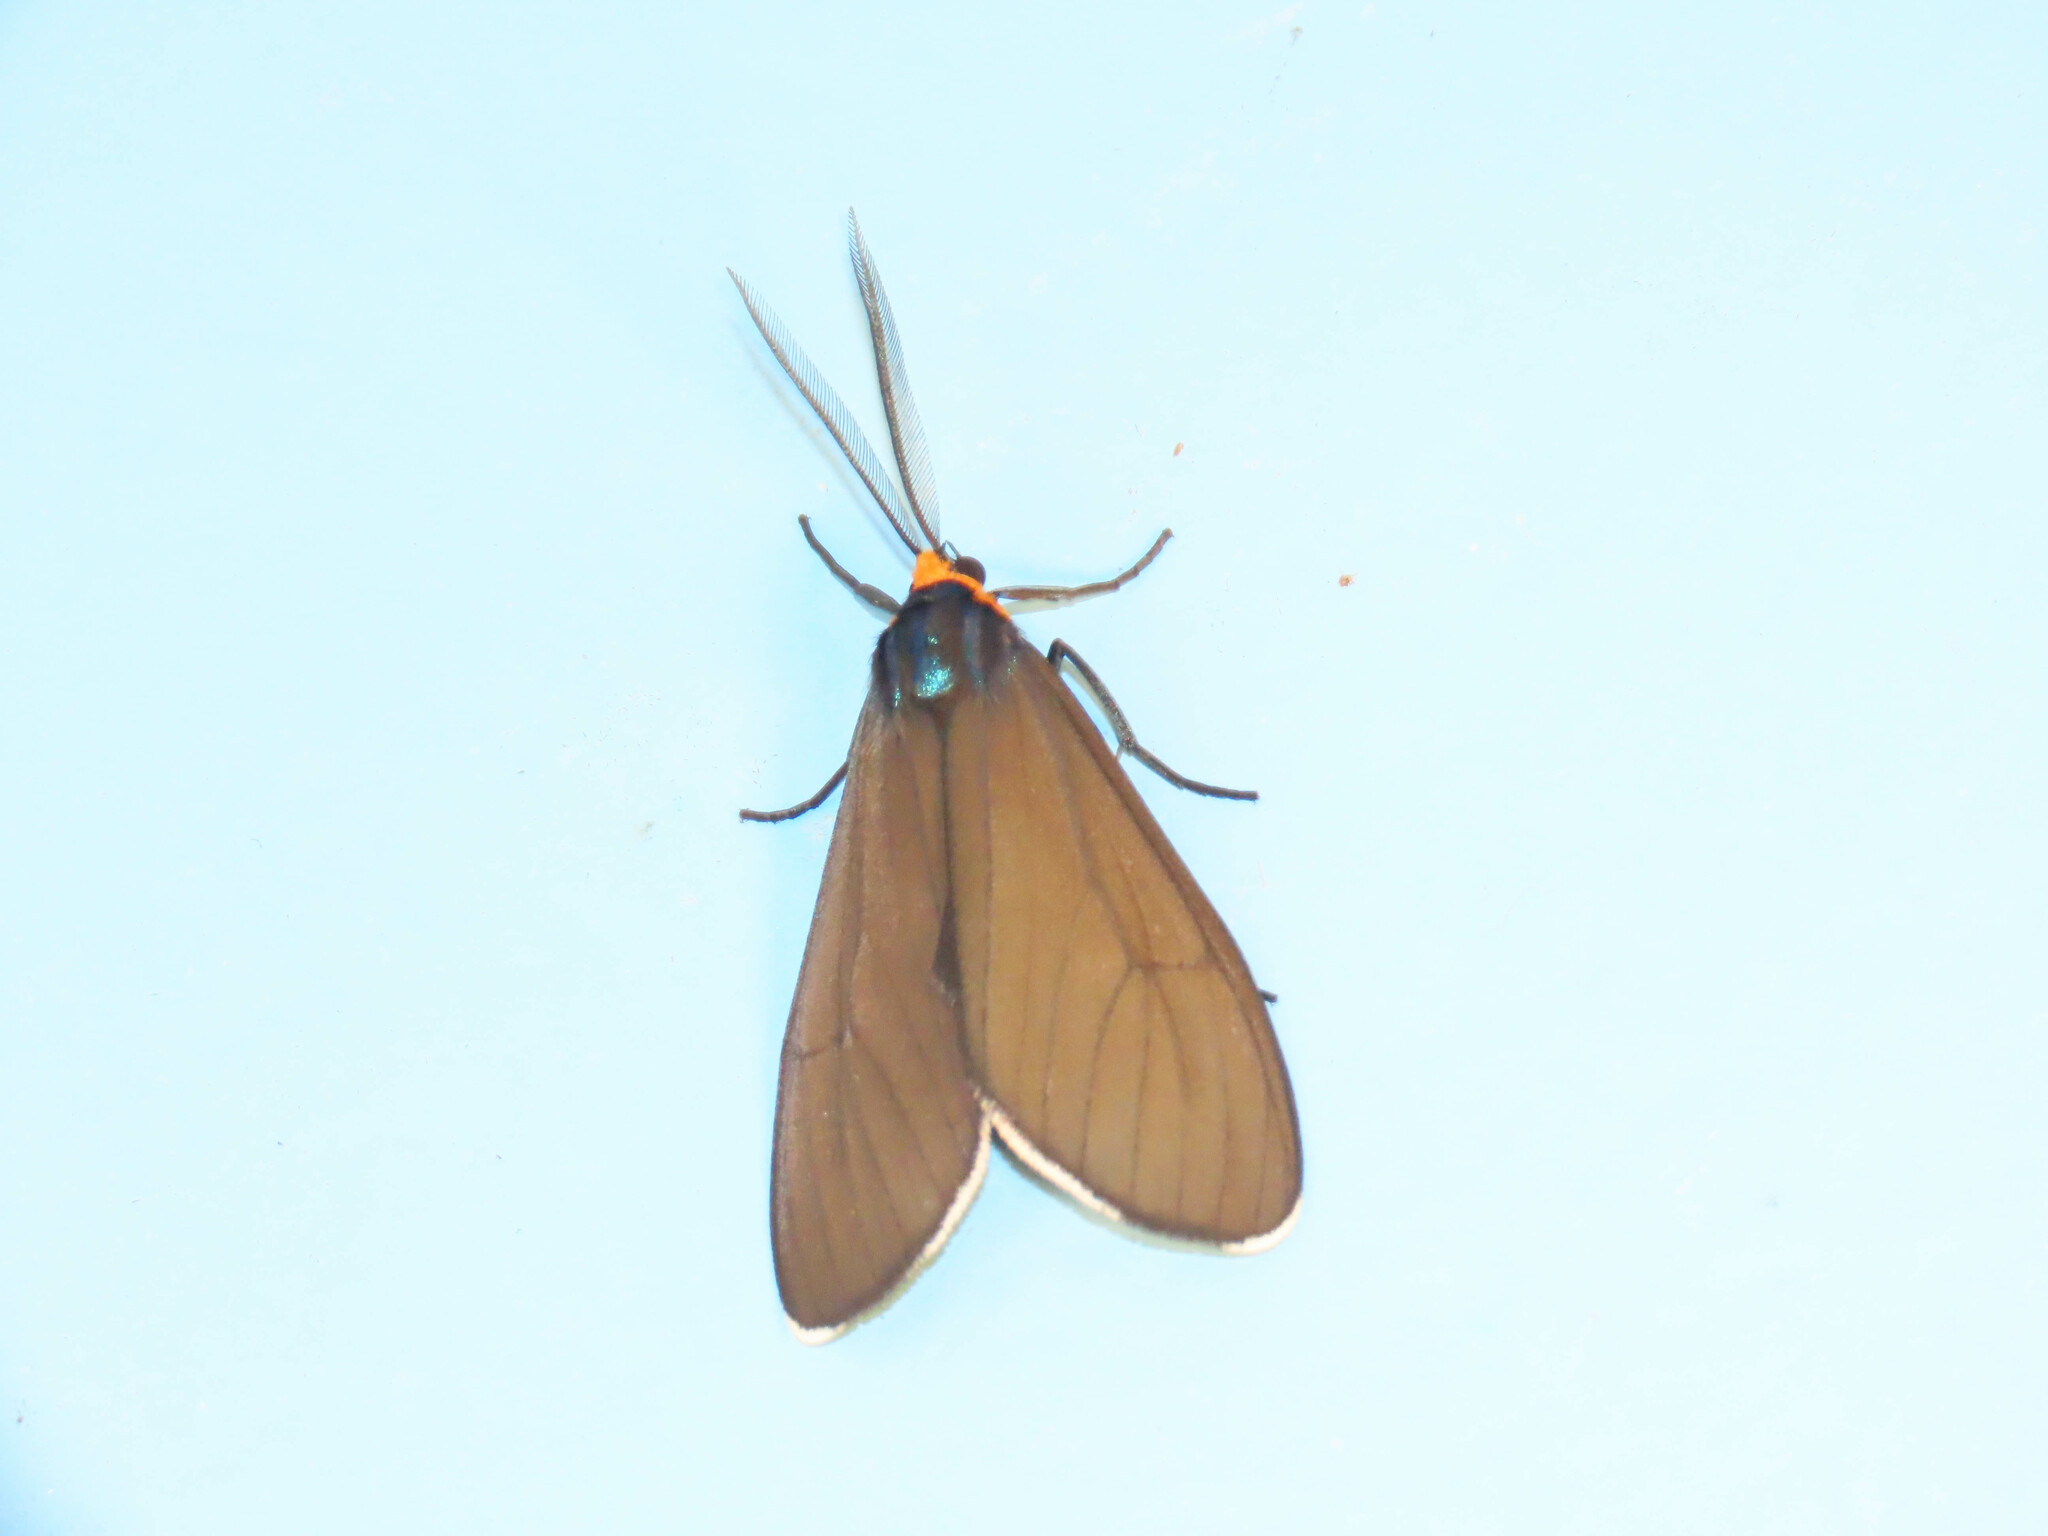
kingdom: Animalia
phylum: Arthropoda
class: Insecta
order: Lepidoptera
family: Erebidae
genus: Ctenucha
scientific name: Ctenucha virginica
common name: Virginia ctenucha moth
